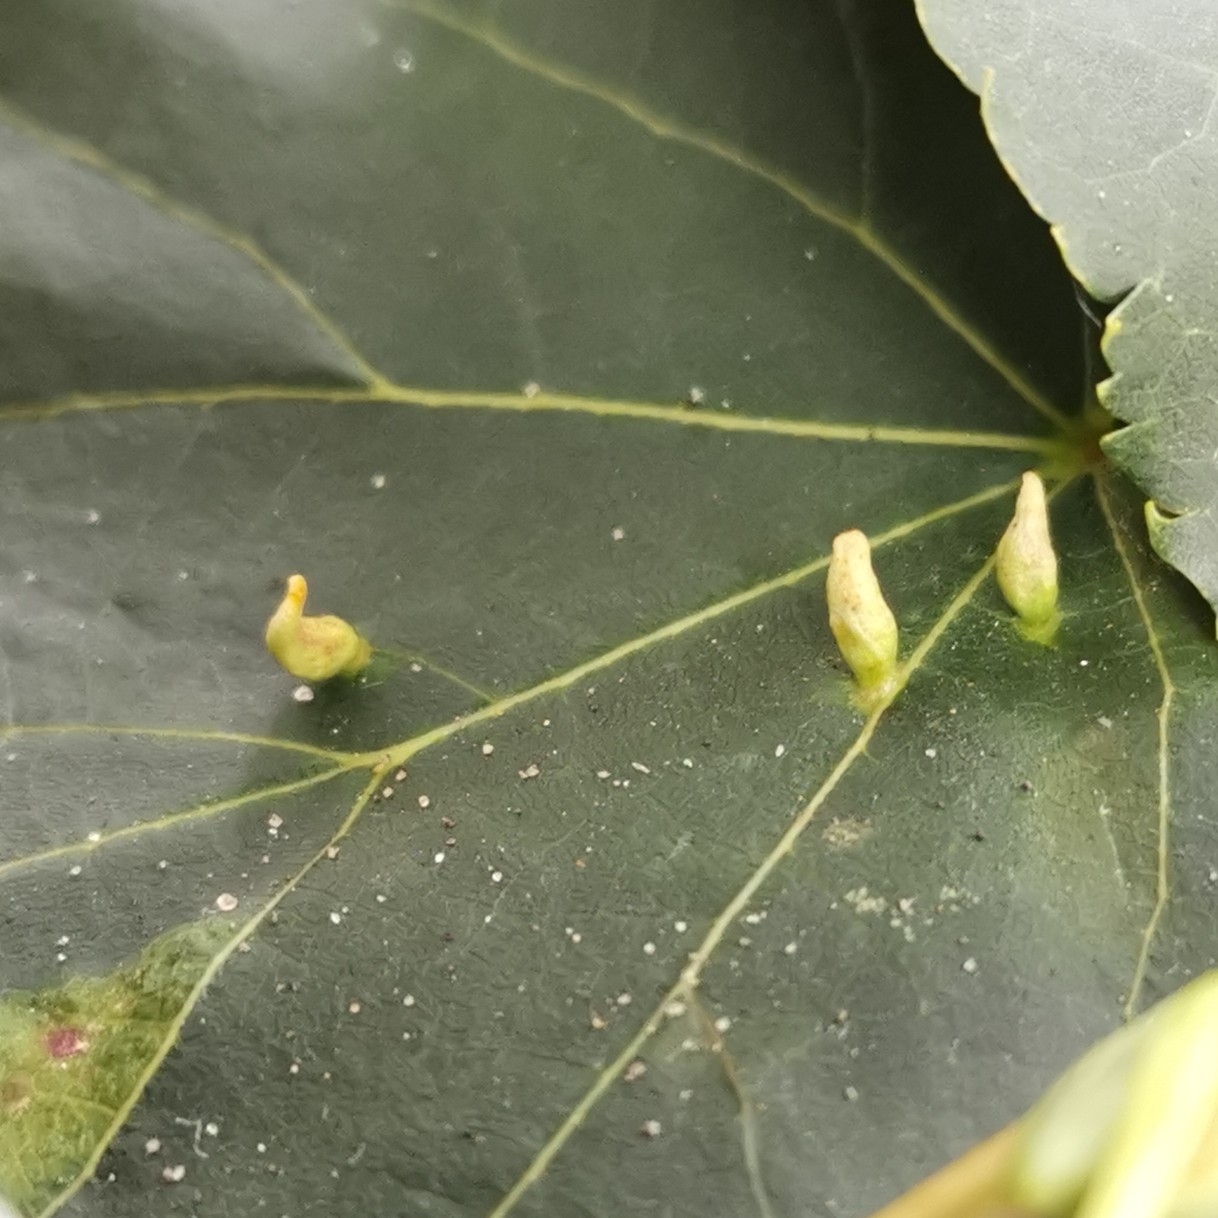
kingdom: Animalia
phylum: Arthropoda
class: Arachnida
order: Trombidiformes
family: Eriophyidae
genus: Eriophyes
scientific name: Eriophyes tiliae
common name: Red nail gall mite
